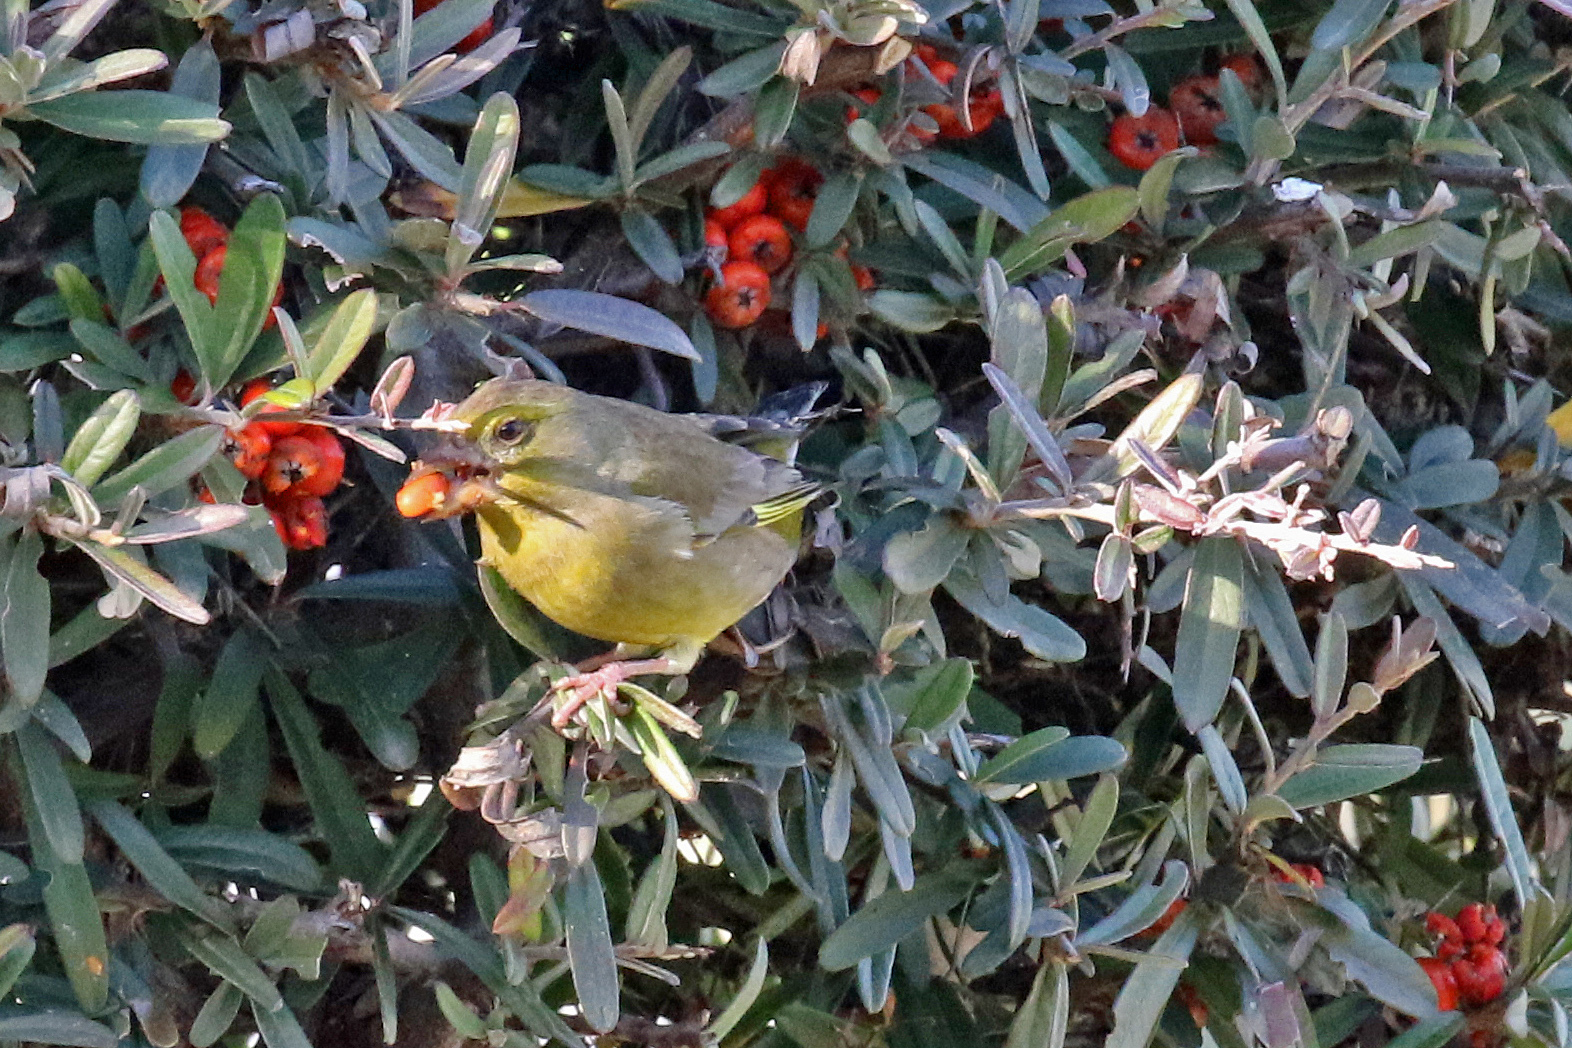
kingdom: Plantae
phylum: Tracheophyta
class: Liliopsida
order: Poales
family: Poaceae
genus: Chloris
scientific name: Chloris chloris
